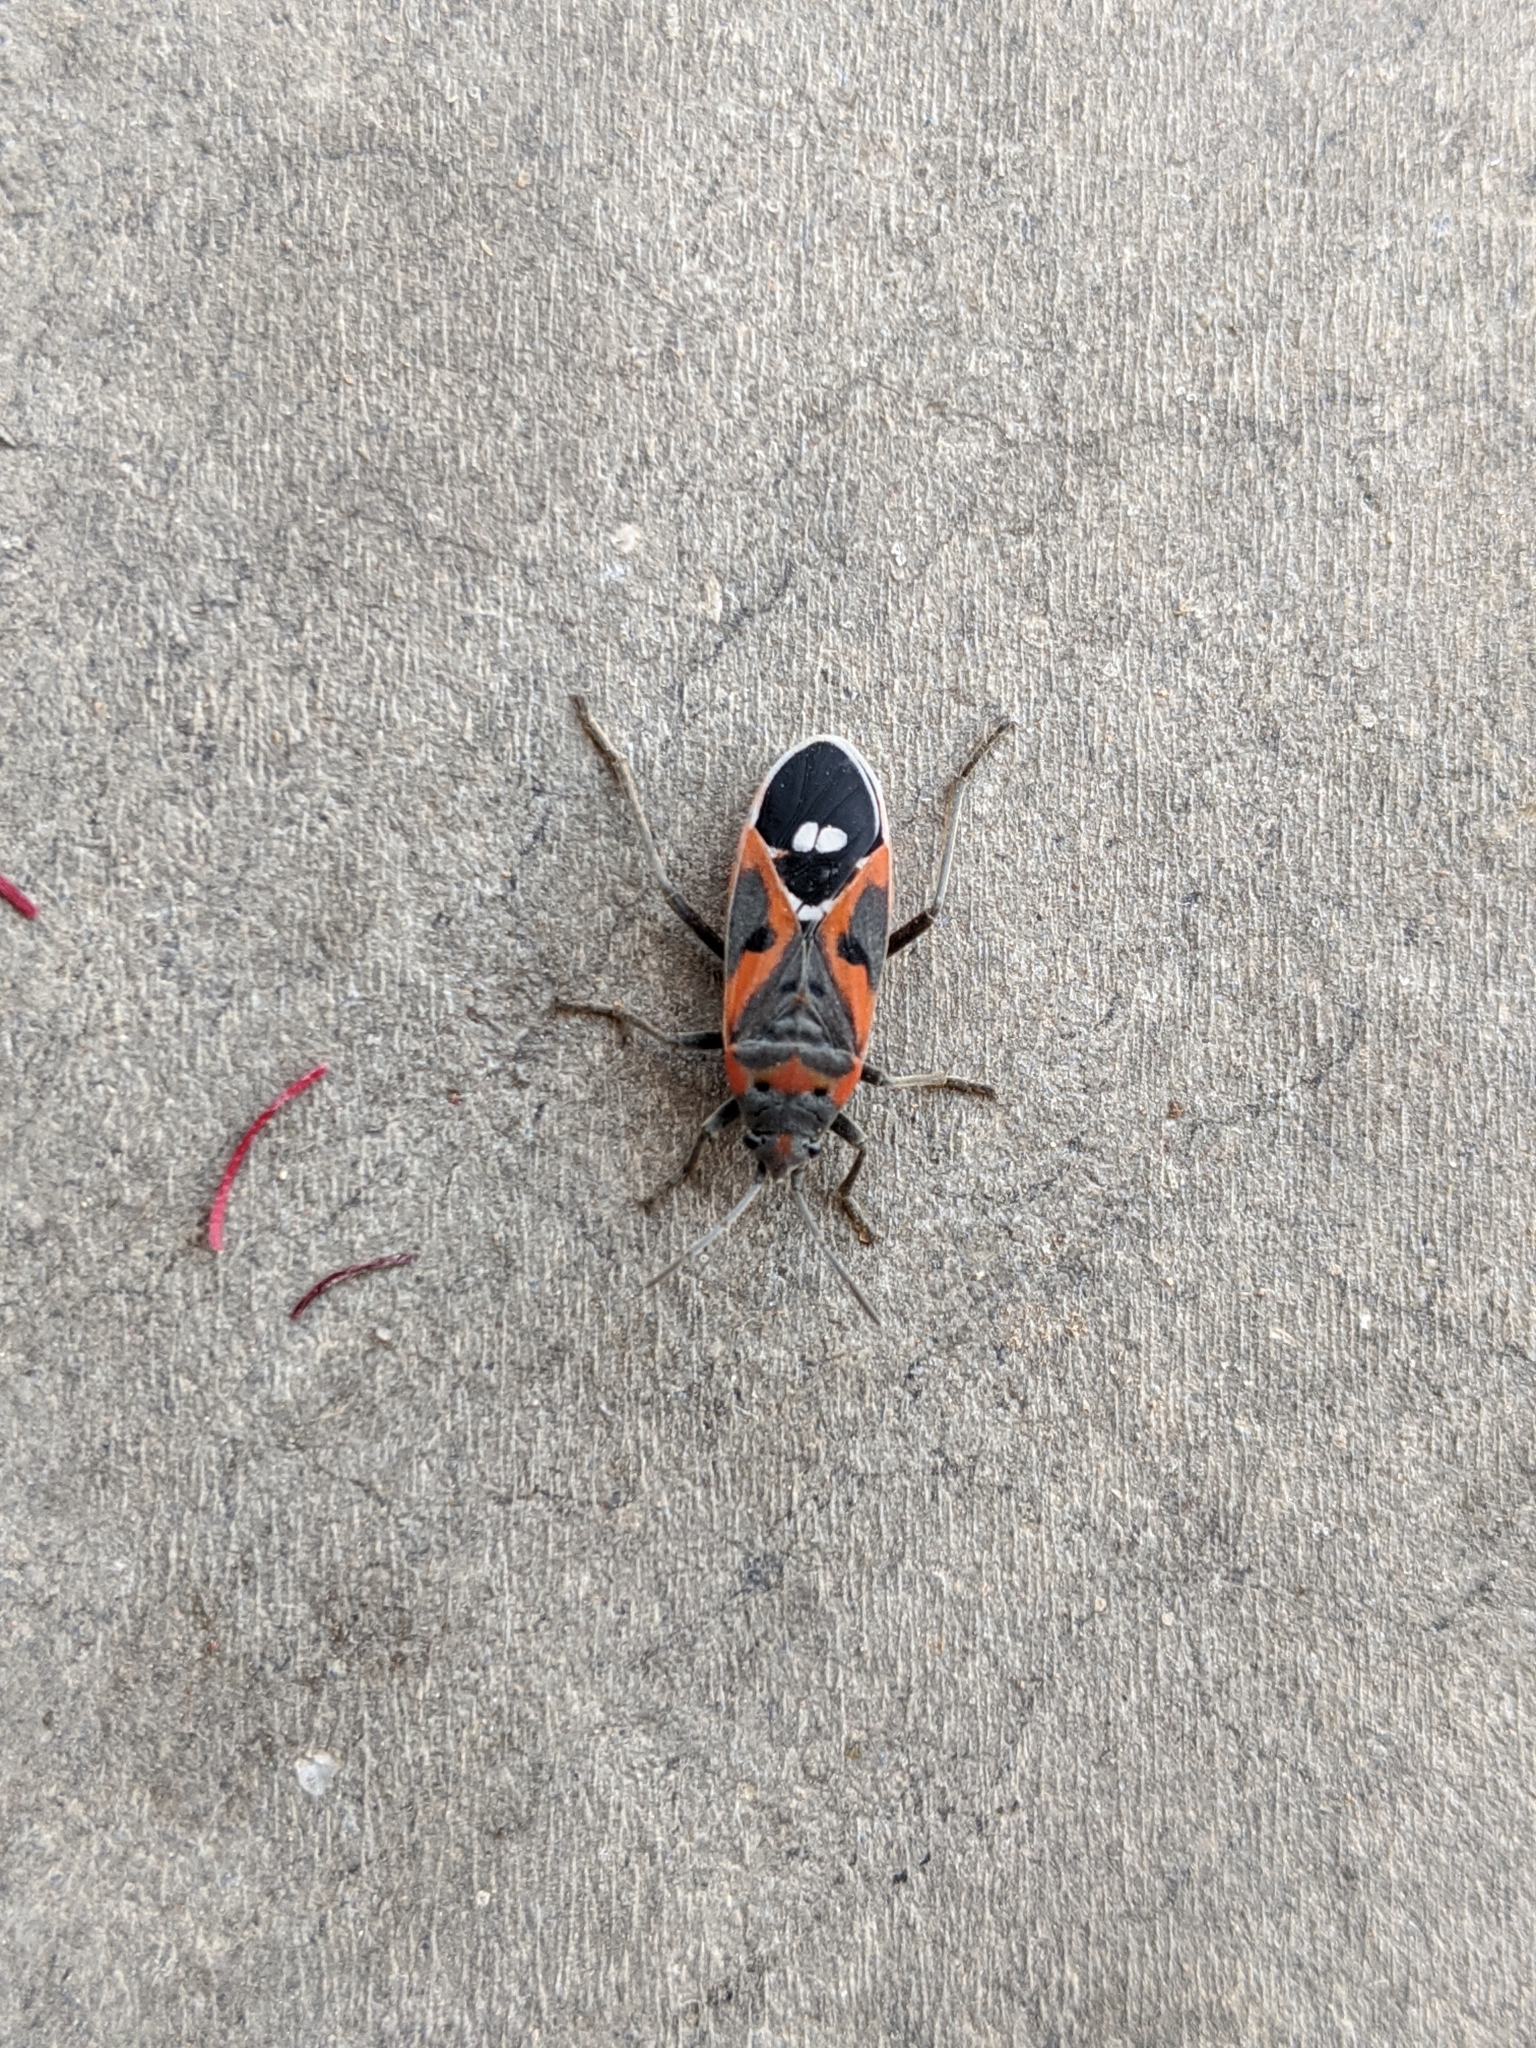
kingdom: Animalia
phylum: Arthropoda
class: Insecta
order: Hemiptera
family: Lygaeidae
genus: Lygaeus
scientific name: Lygaeus kalmii
